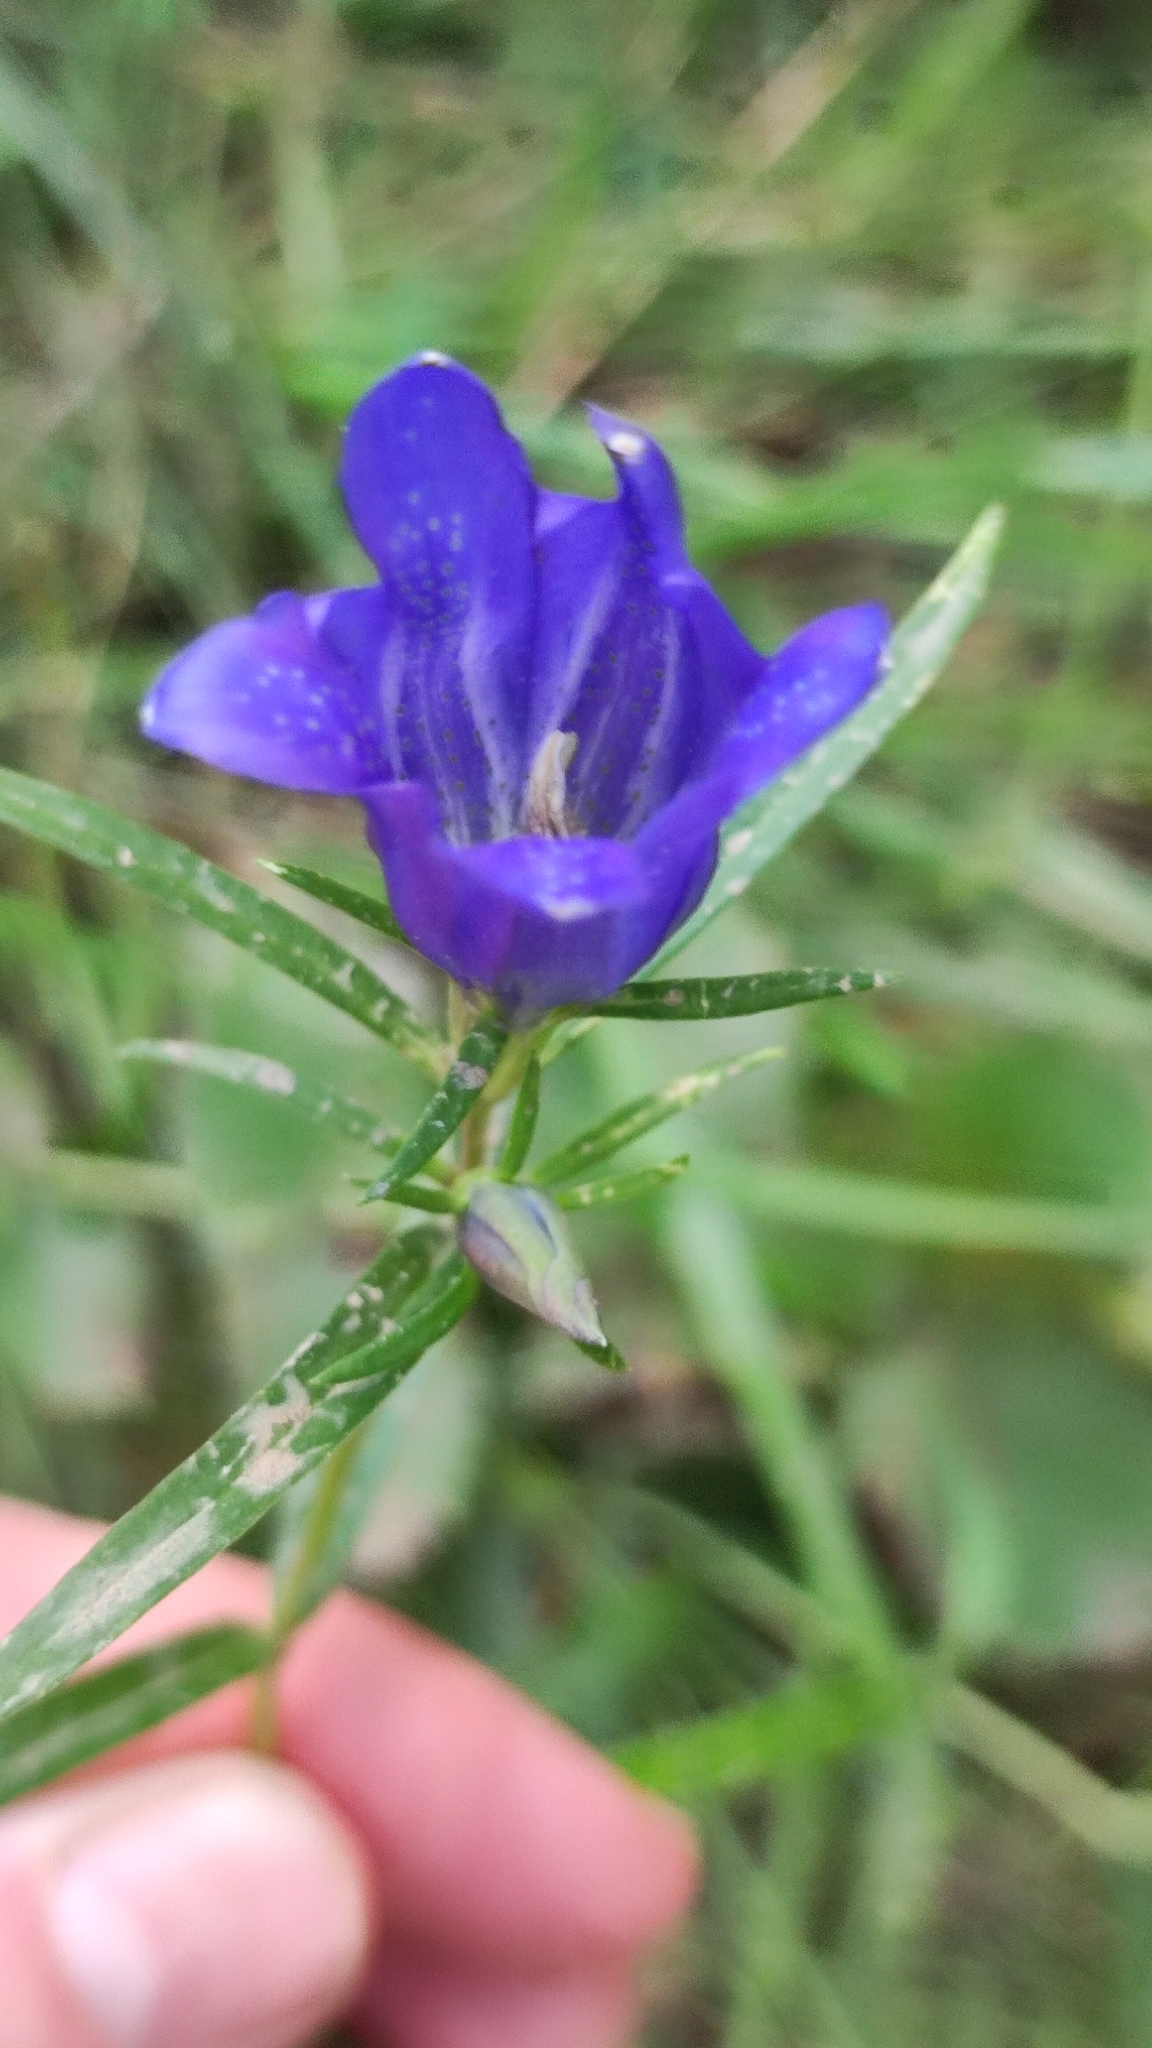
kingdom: Plantae
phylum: Tracheophyta
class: Magnoliopsida
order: Gentianales
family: Gentianaceae
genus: Gentiana
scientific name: Gentiana pneumonanthe
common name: Marsh gentian
